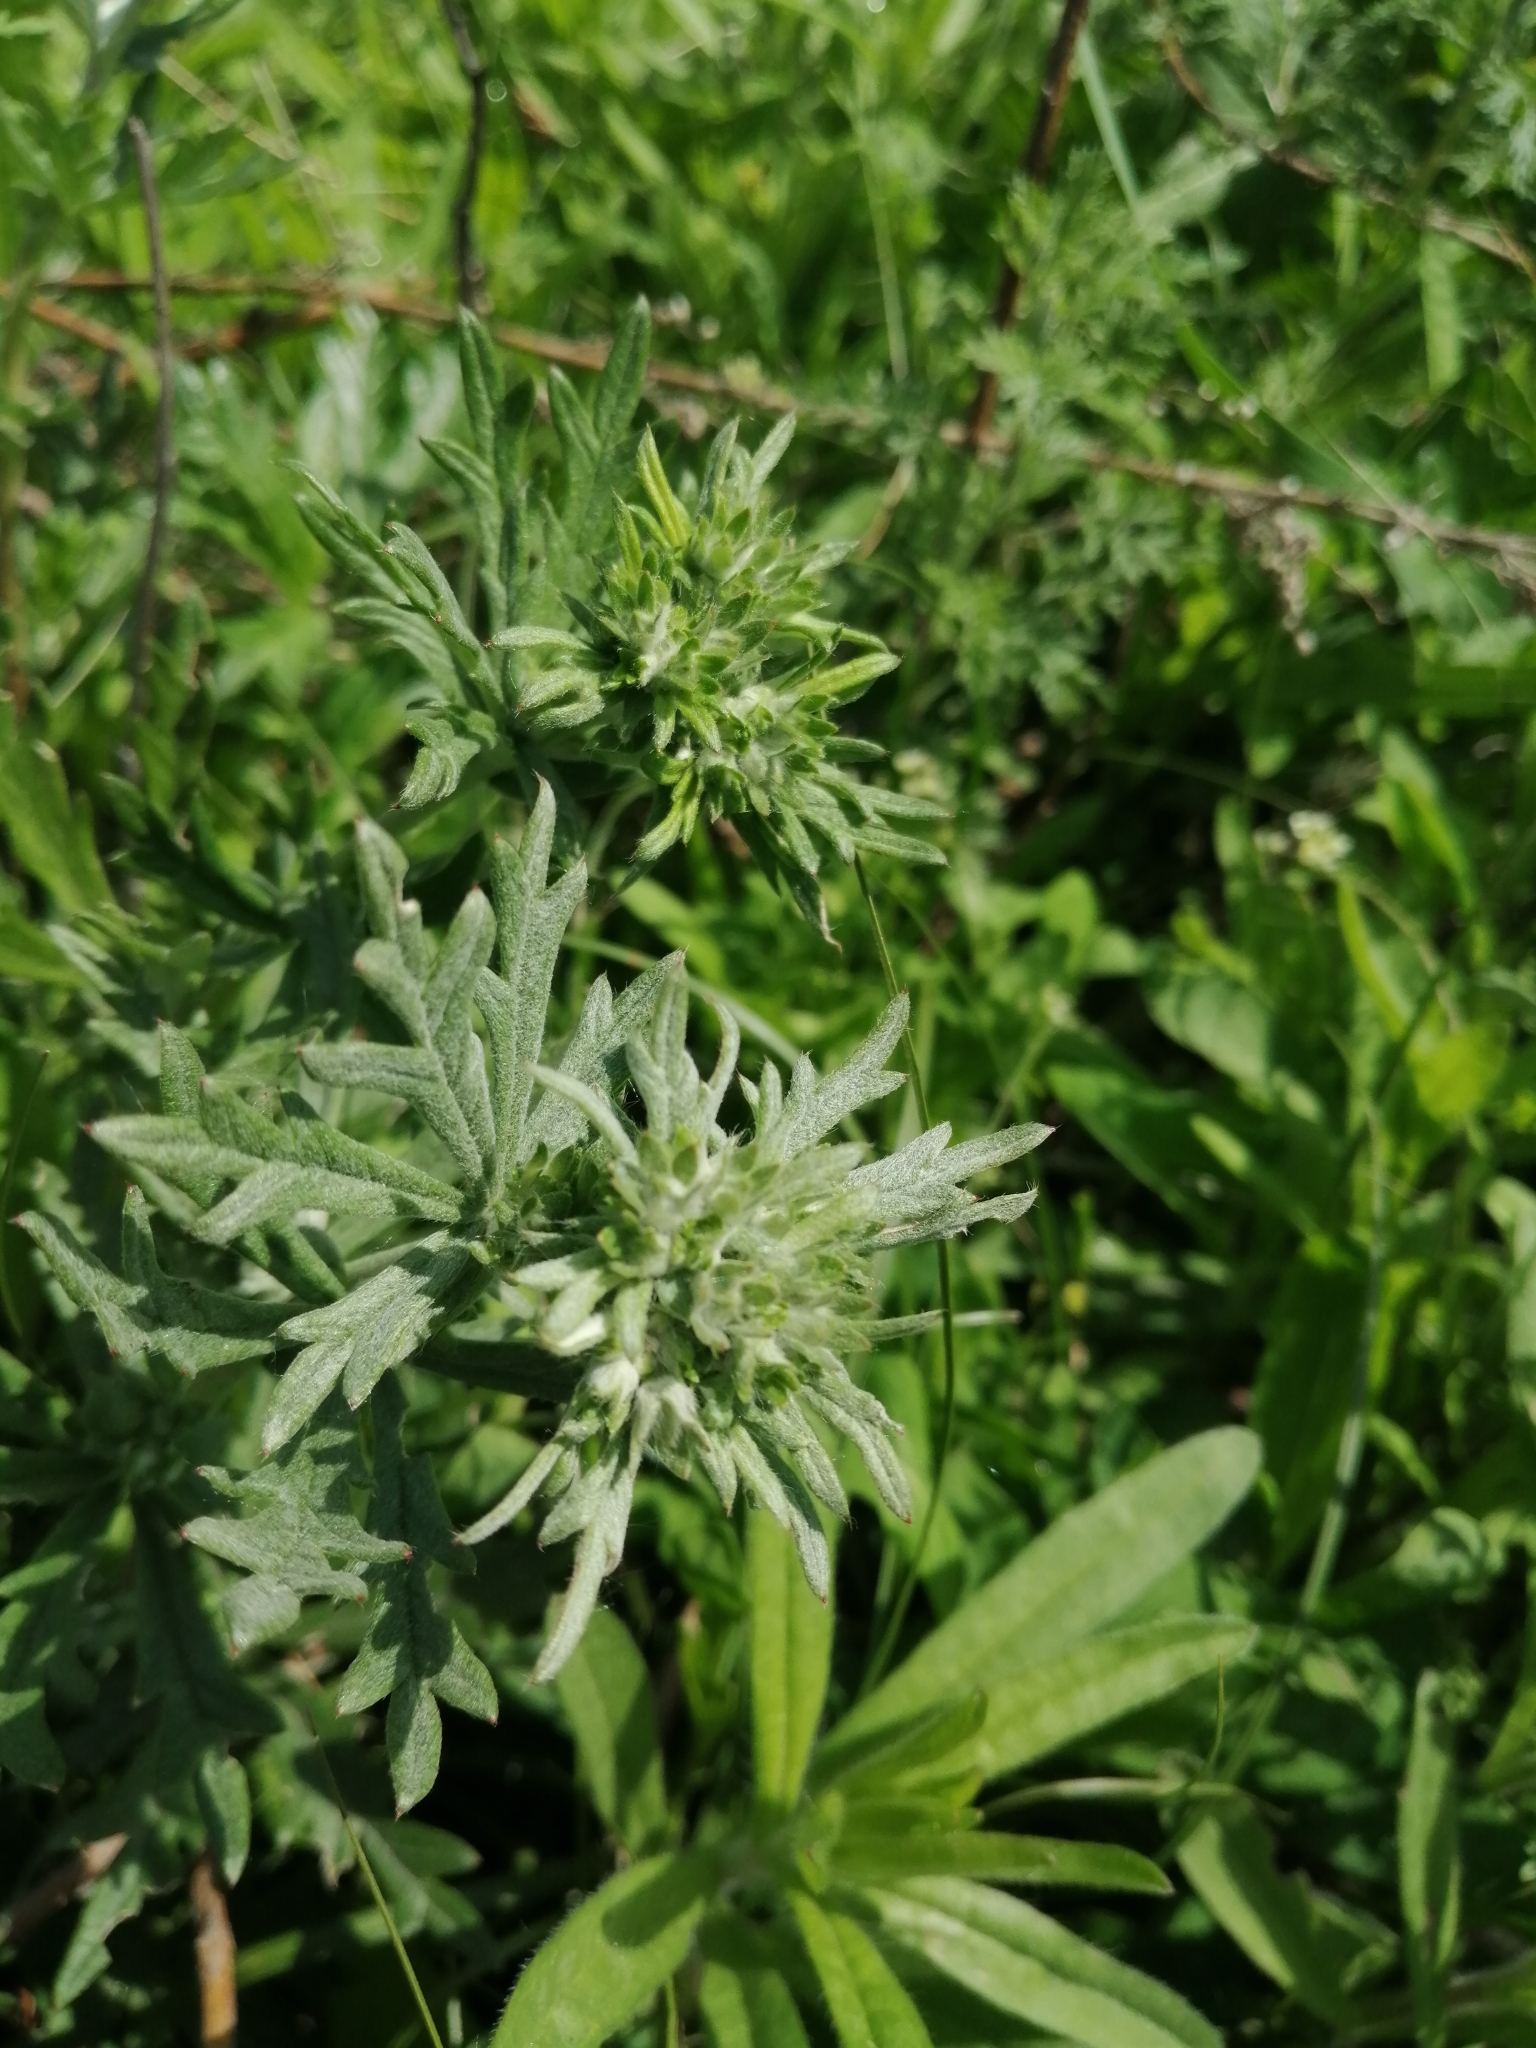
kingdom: Plantae
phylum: Tracheophyta
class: Magnoliopsida
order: Rosales
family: Rosaceae
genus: Potentilla
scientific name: Potentilla argentea
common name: Hoary cinquefoil
